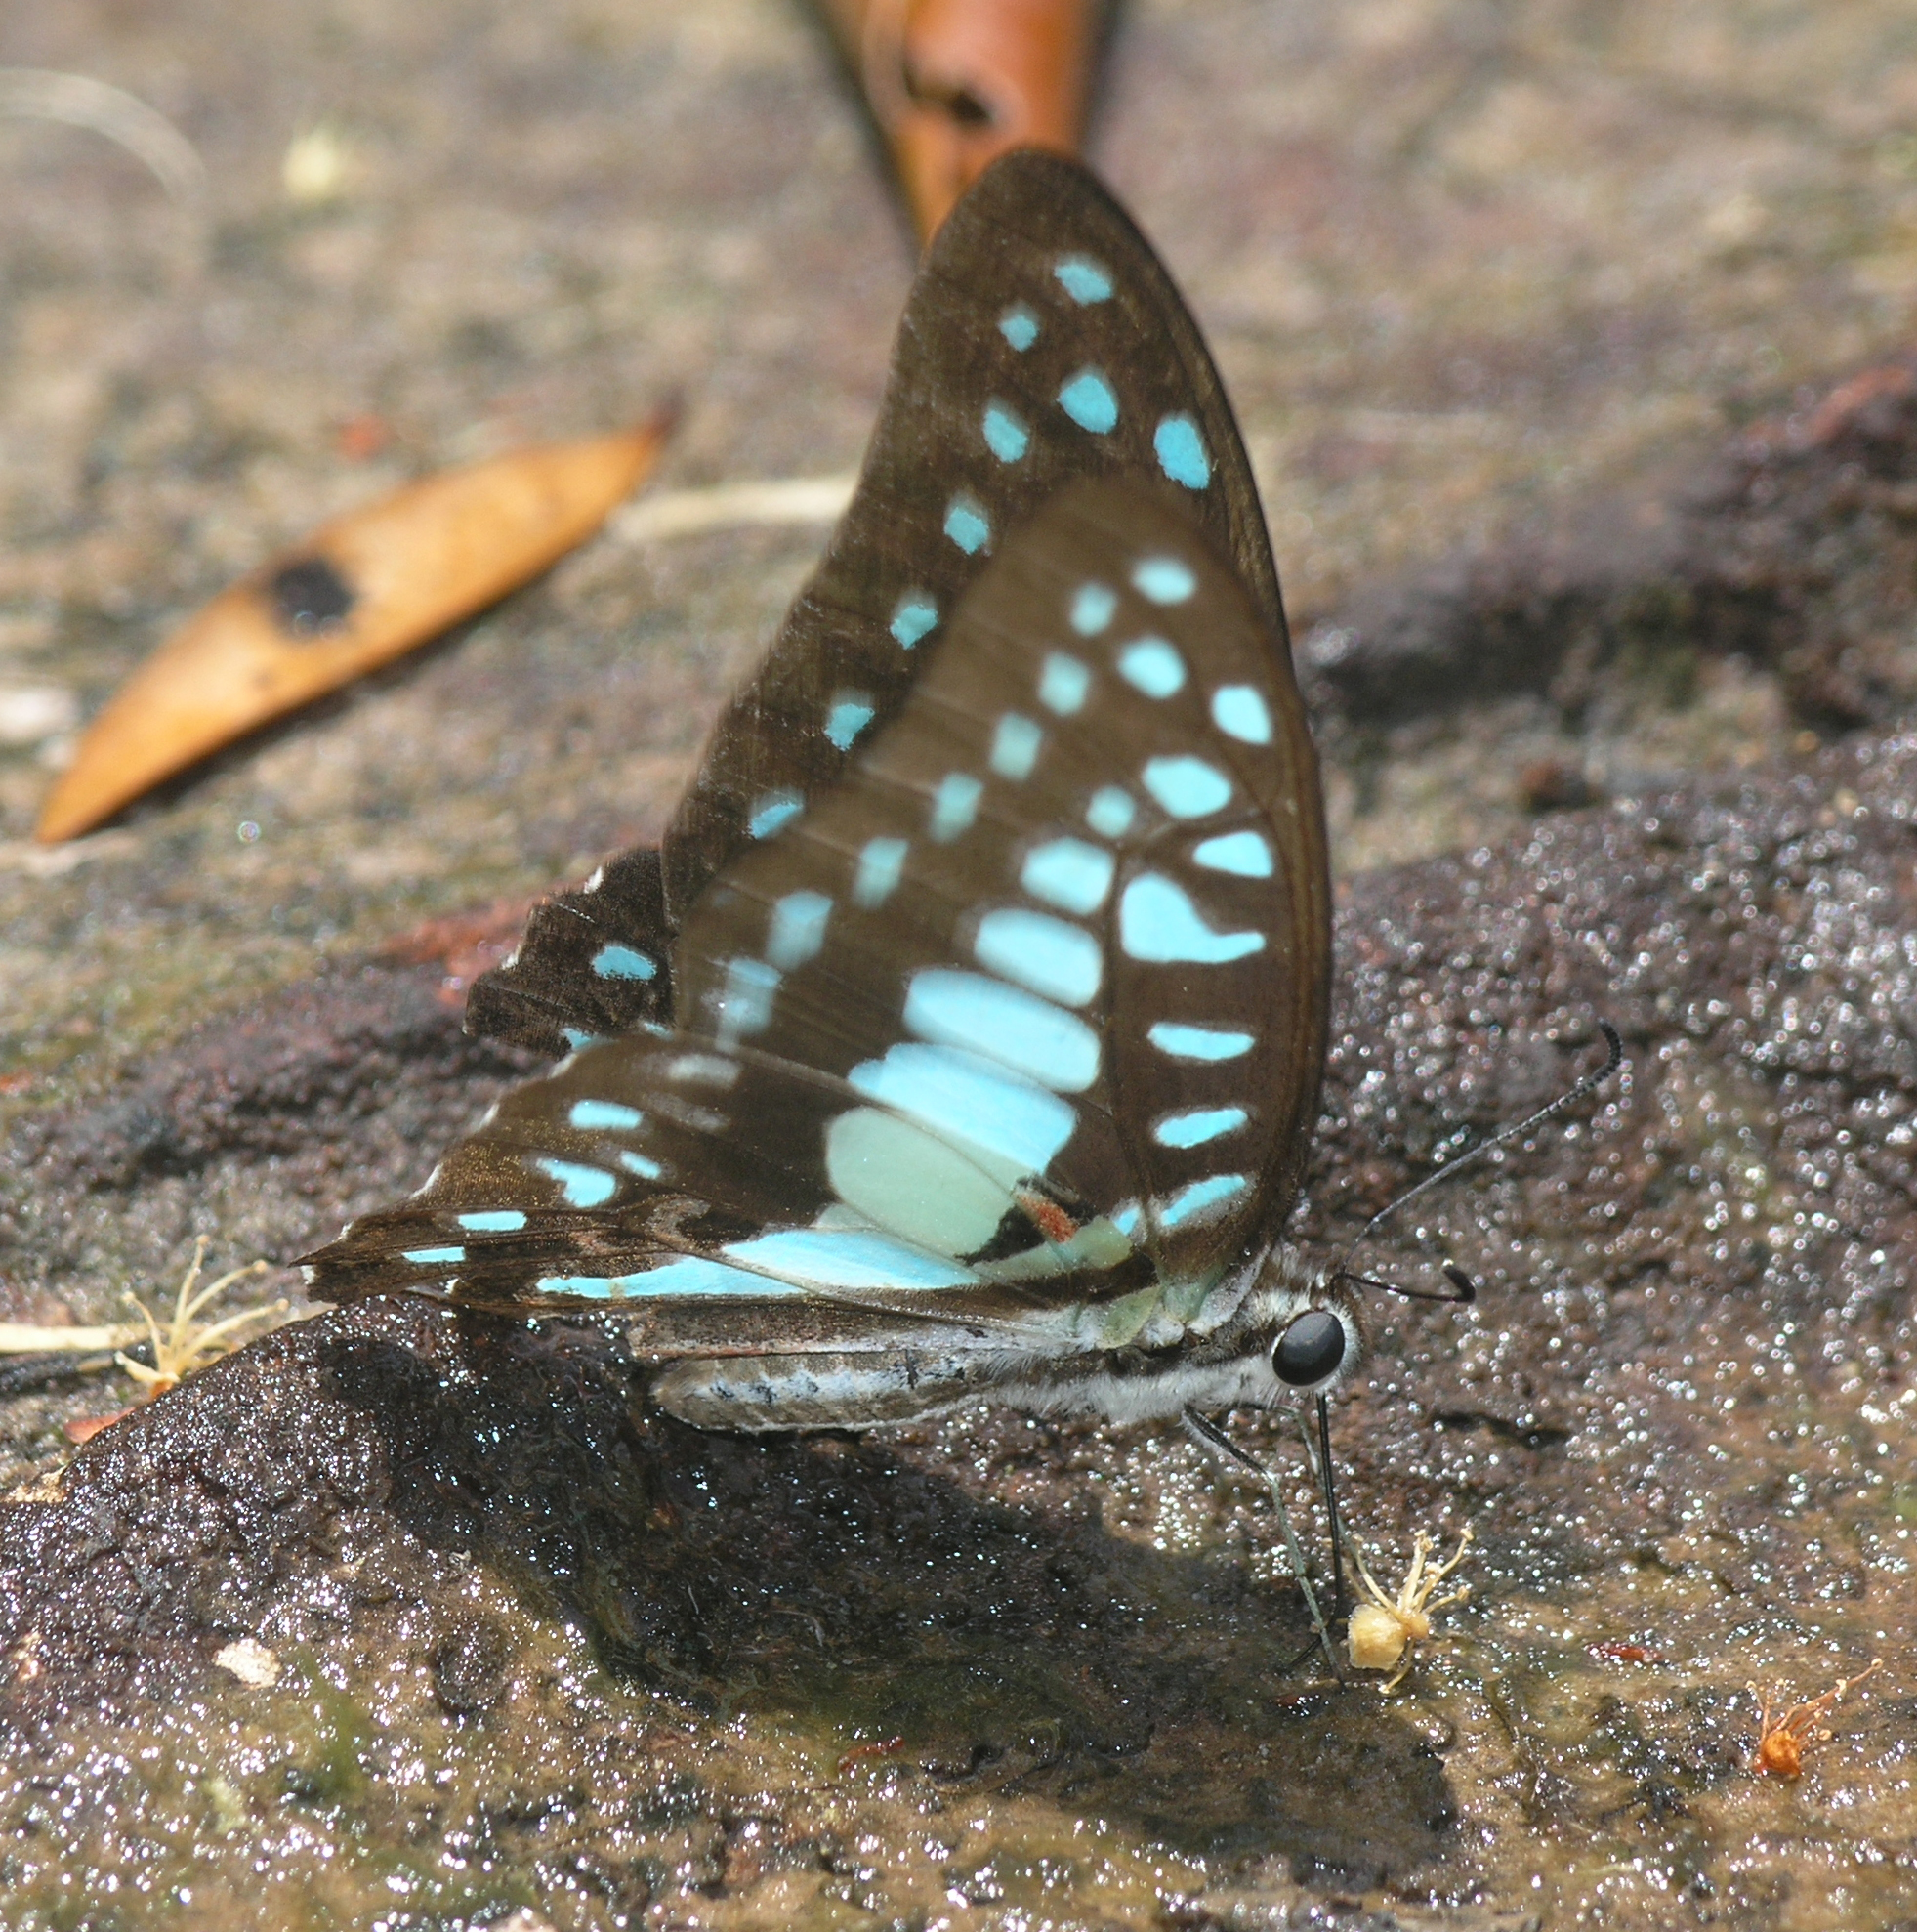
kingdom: Animalia
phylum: Arthropoda
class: Insecta
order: Lepidoptera
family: Papilionidae
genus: Graphium
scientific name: Graphium doson
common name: Common jay
